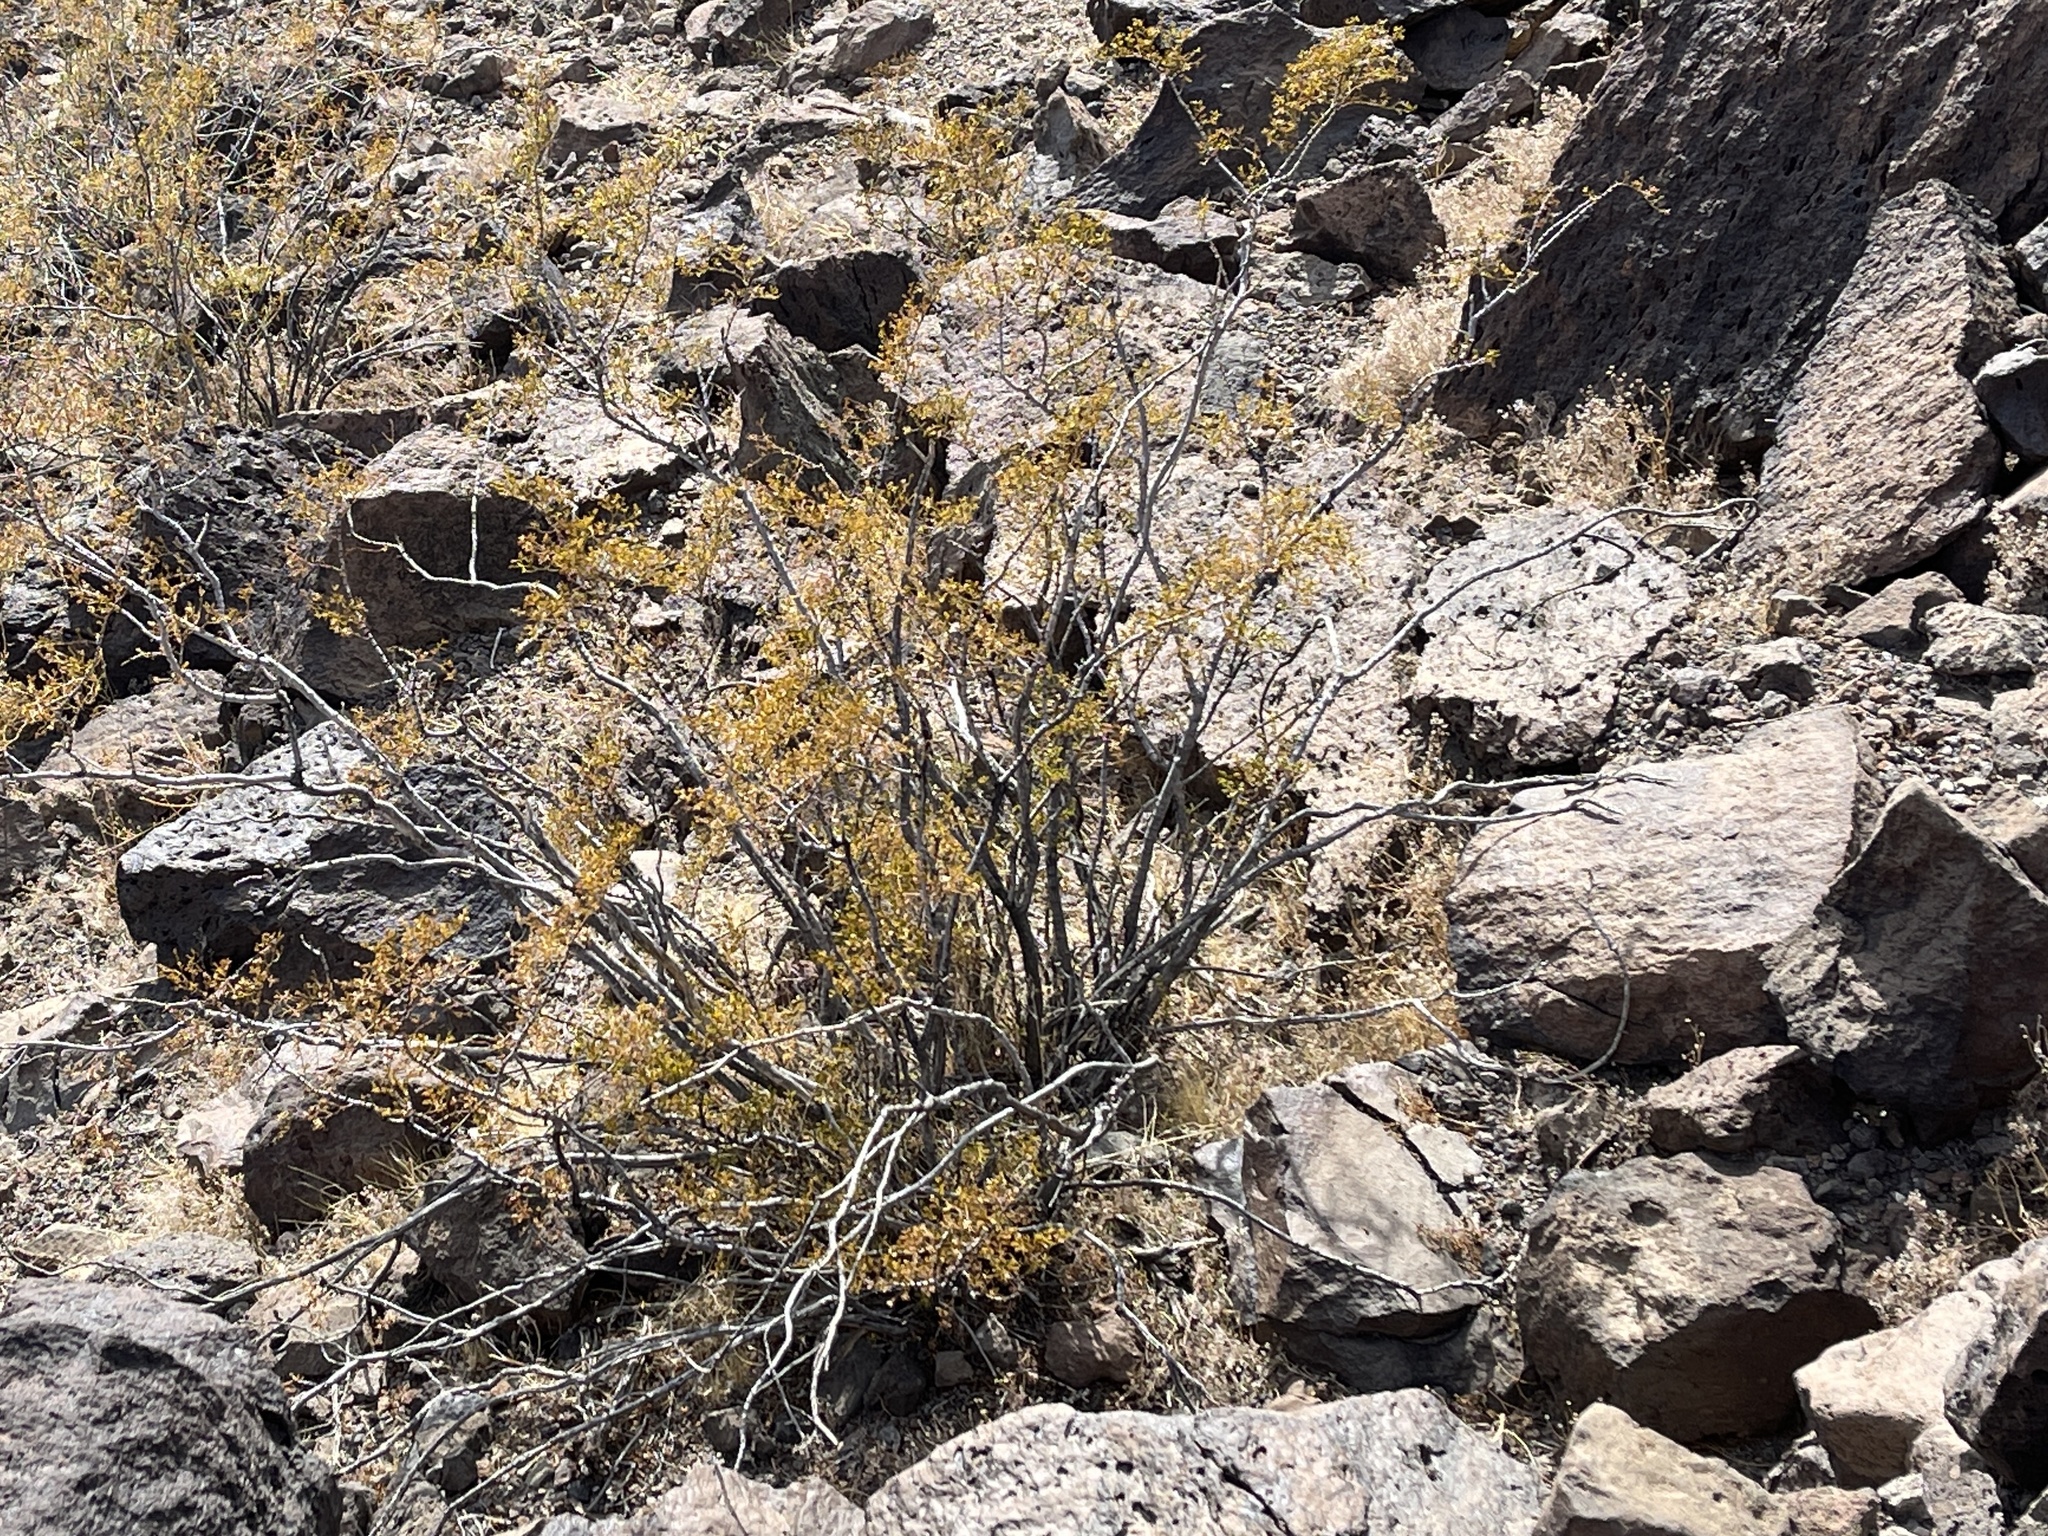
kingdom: Plantae
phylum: Tracheophyta
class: Magnoliopsida
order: Zygophyllales
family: Zygophyllaceae
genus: Larrea
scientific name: Larrea tridentata
